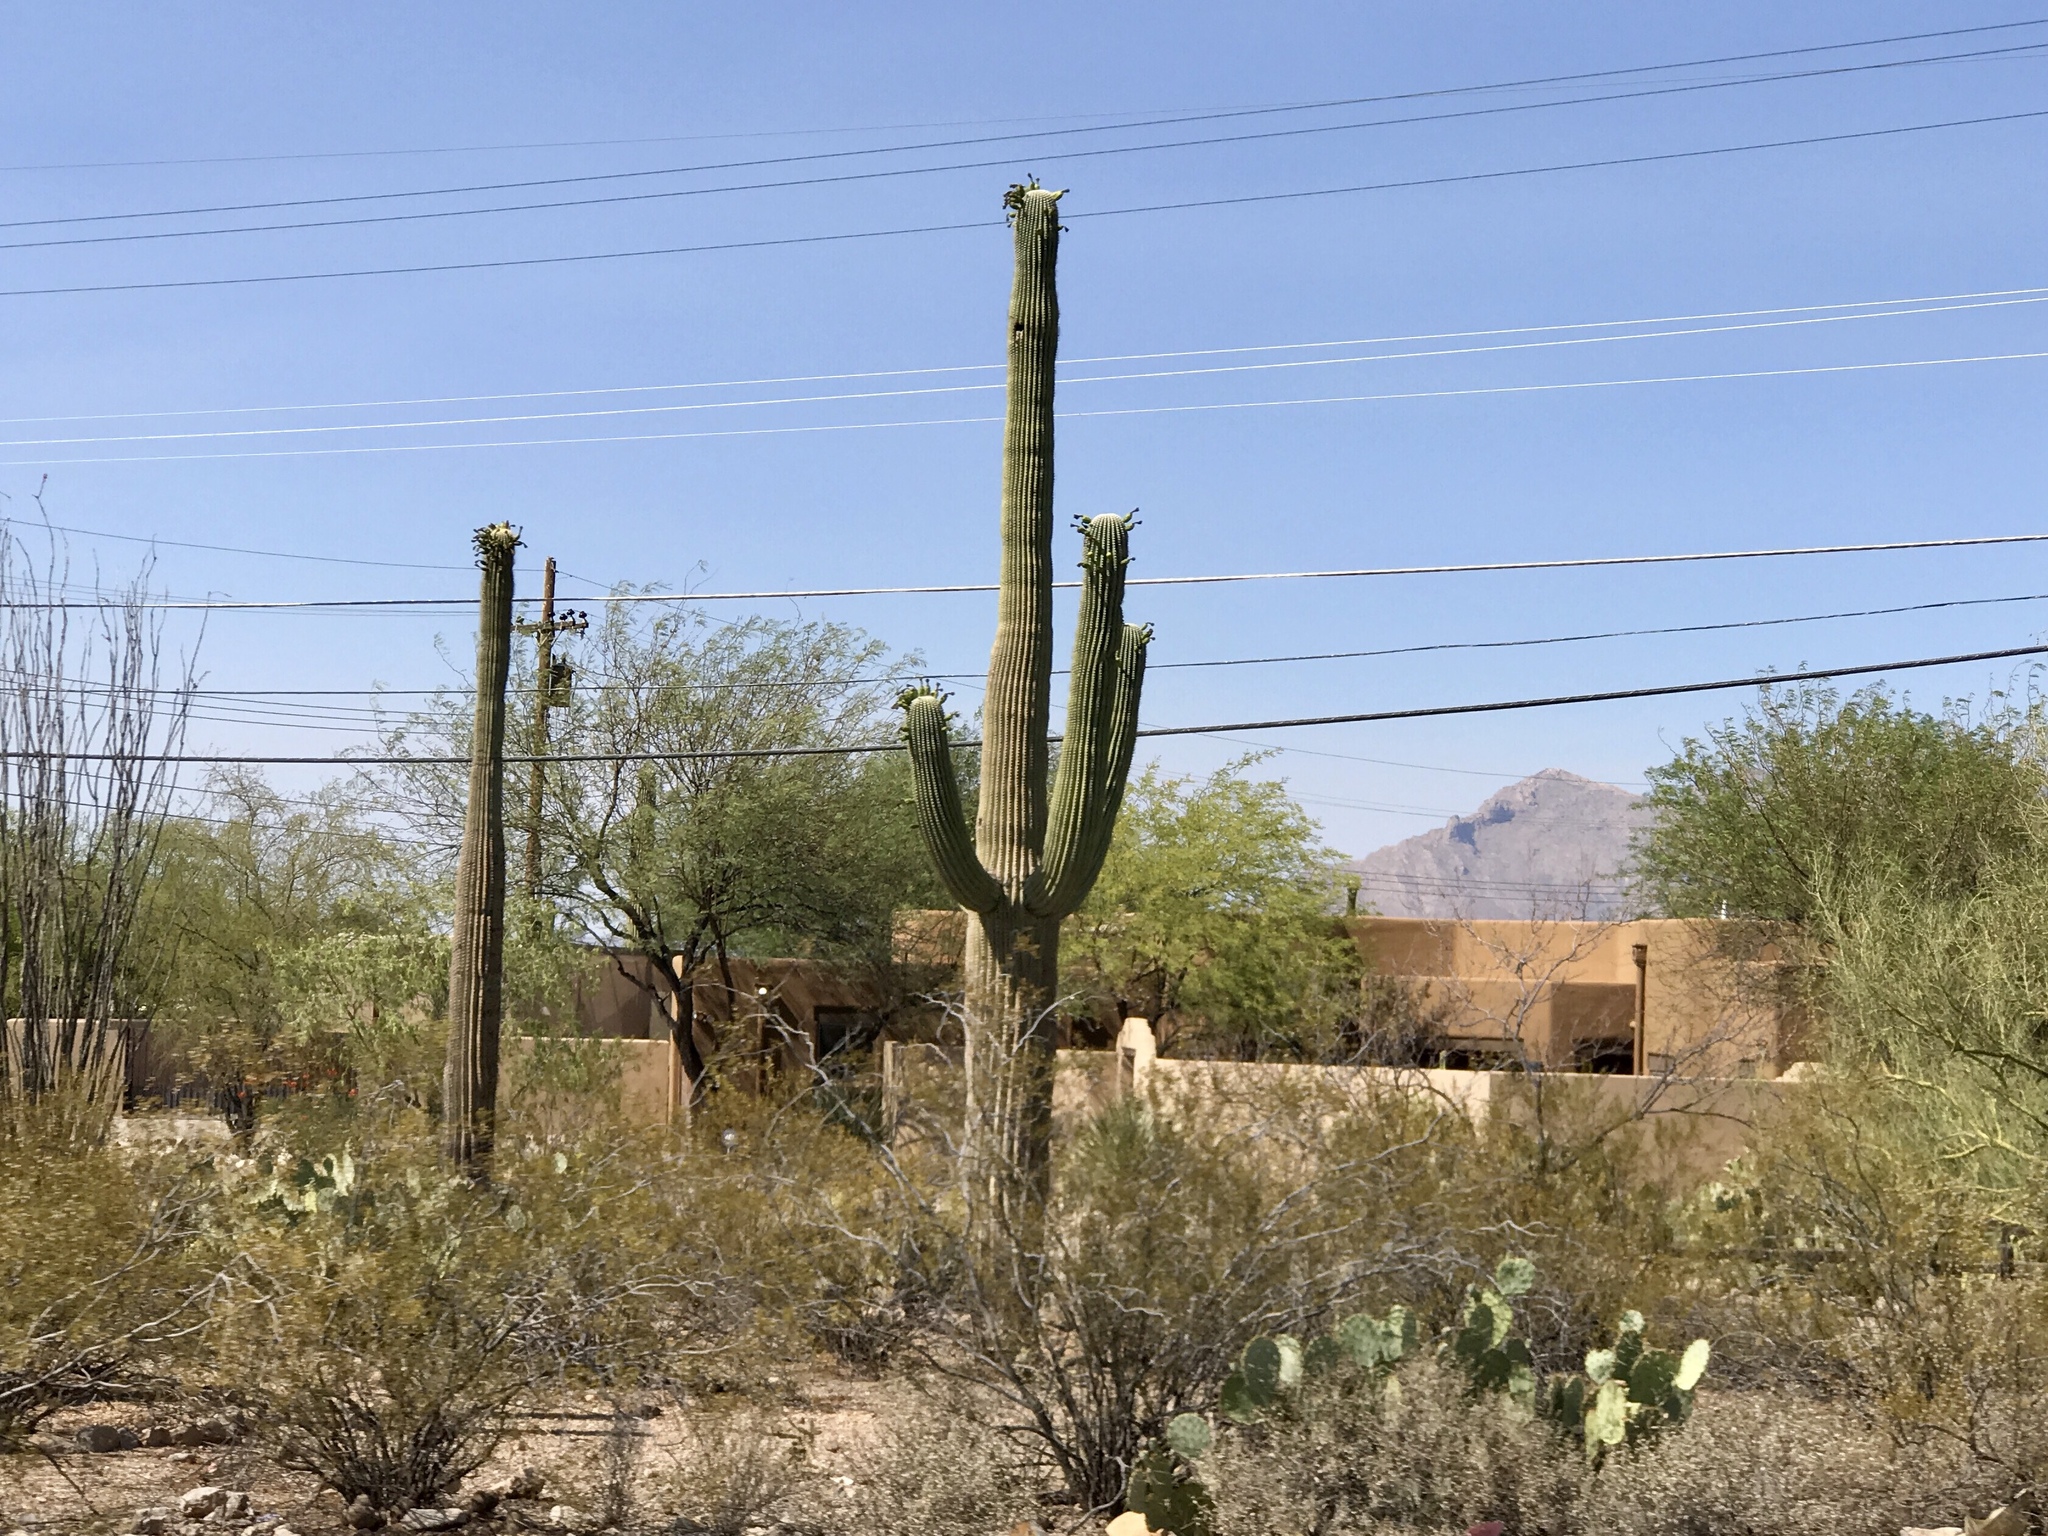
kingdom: Plantae
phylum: Tracheophyta
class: Magnoliopsida
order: Caryophyllales
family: Cactaceae
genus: Carnegiea
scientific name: Carnegiea gigantea
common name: Saguaro
